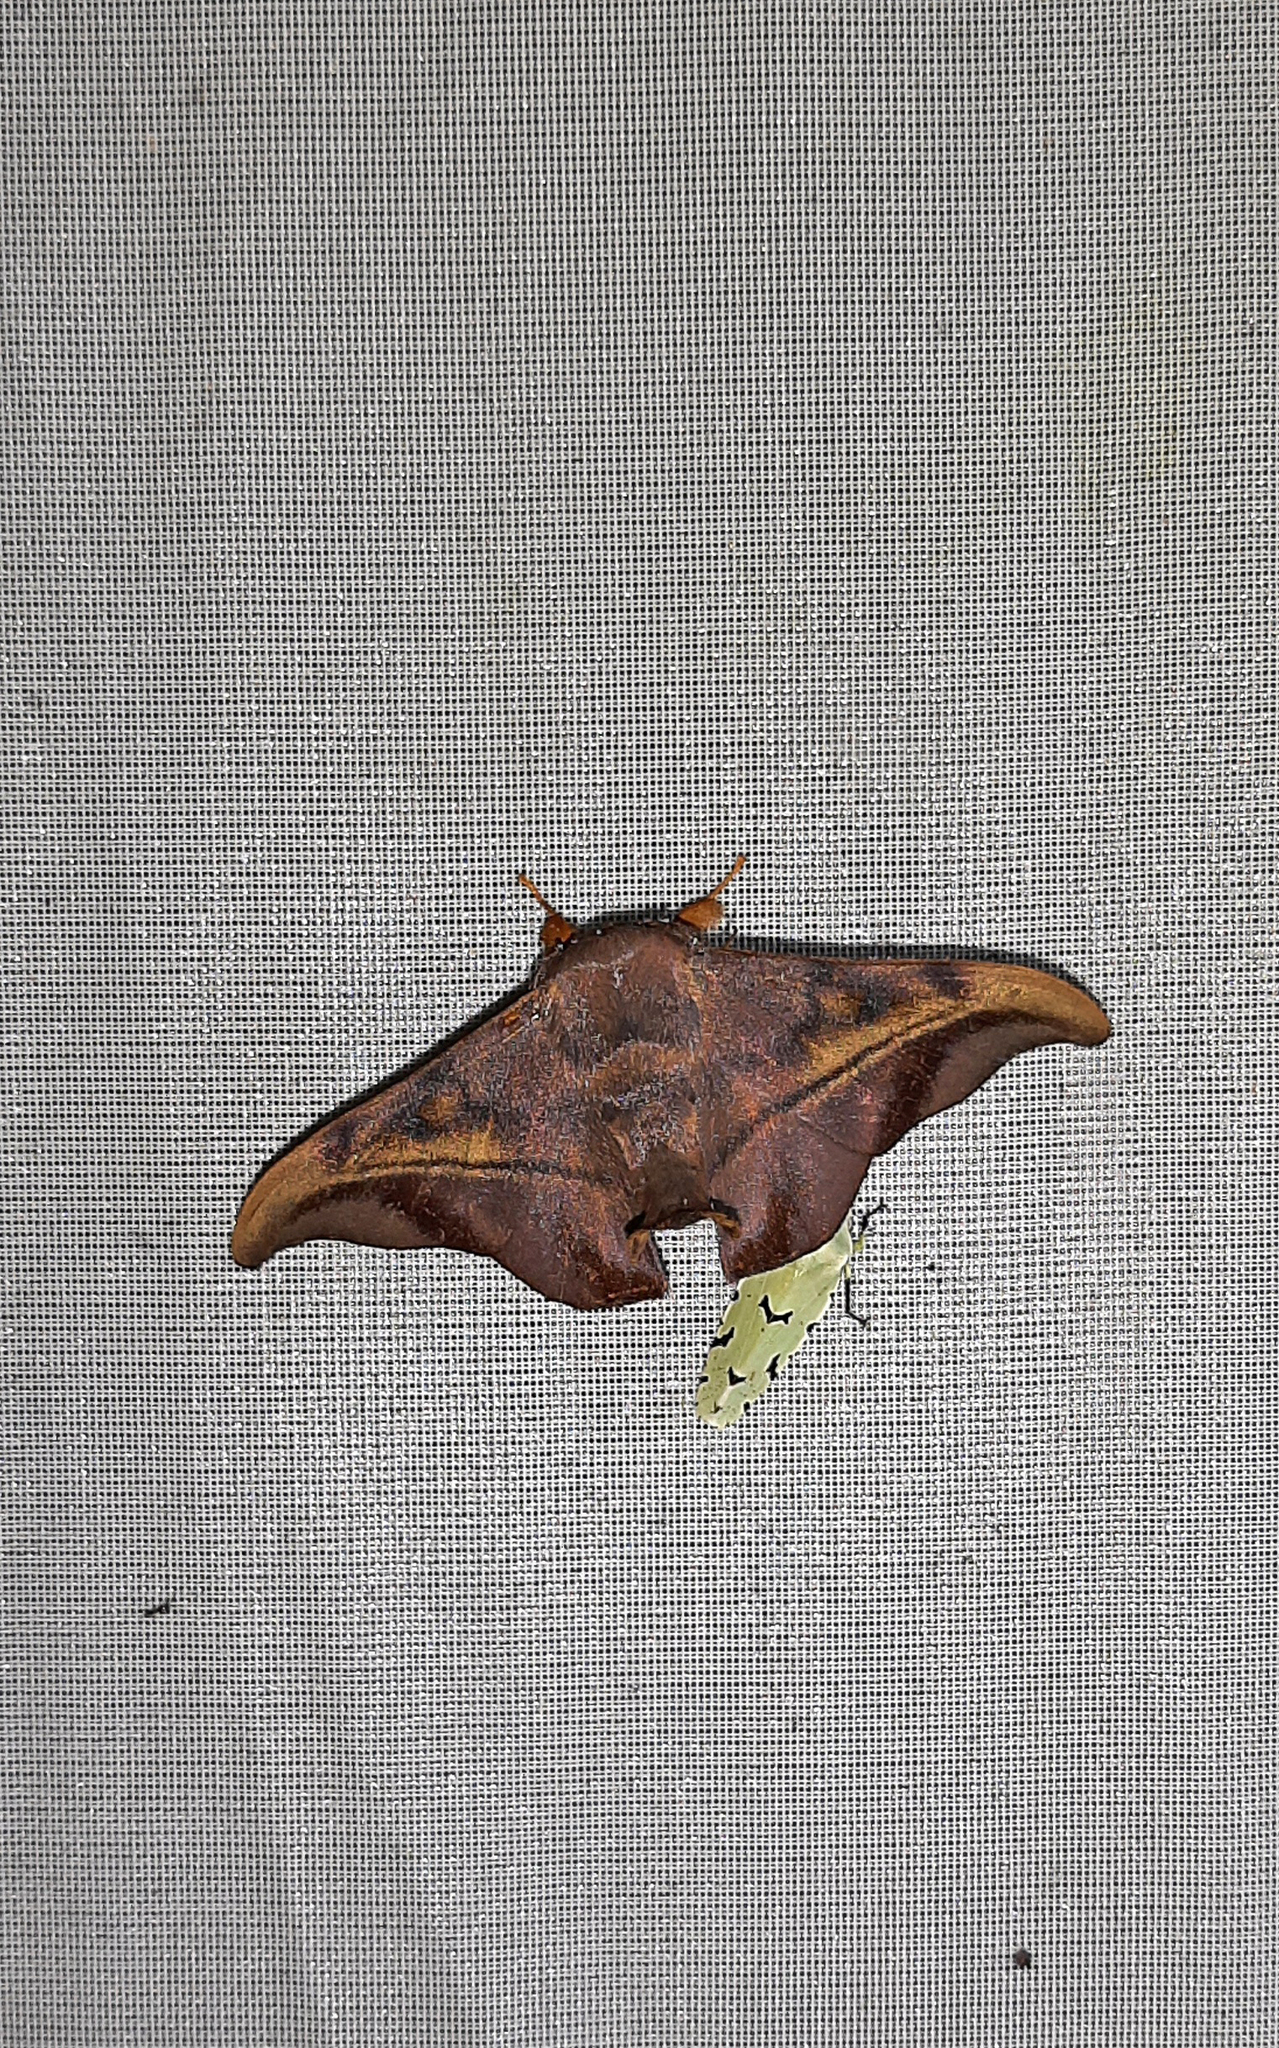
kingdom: Animalia
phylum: Arthropoda
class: Insecta
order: Lepidoptera
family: Mimallonidae
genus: Thaelia
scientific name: Thaelia subrubiginosa
